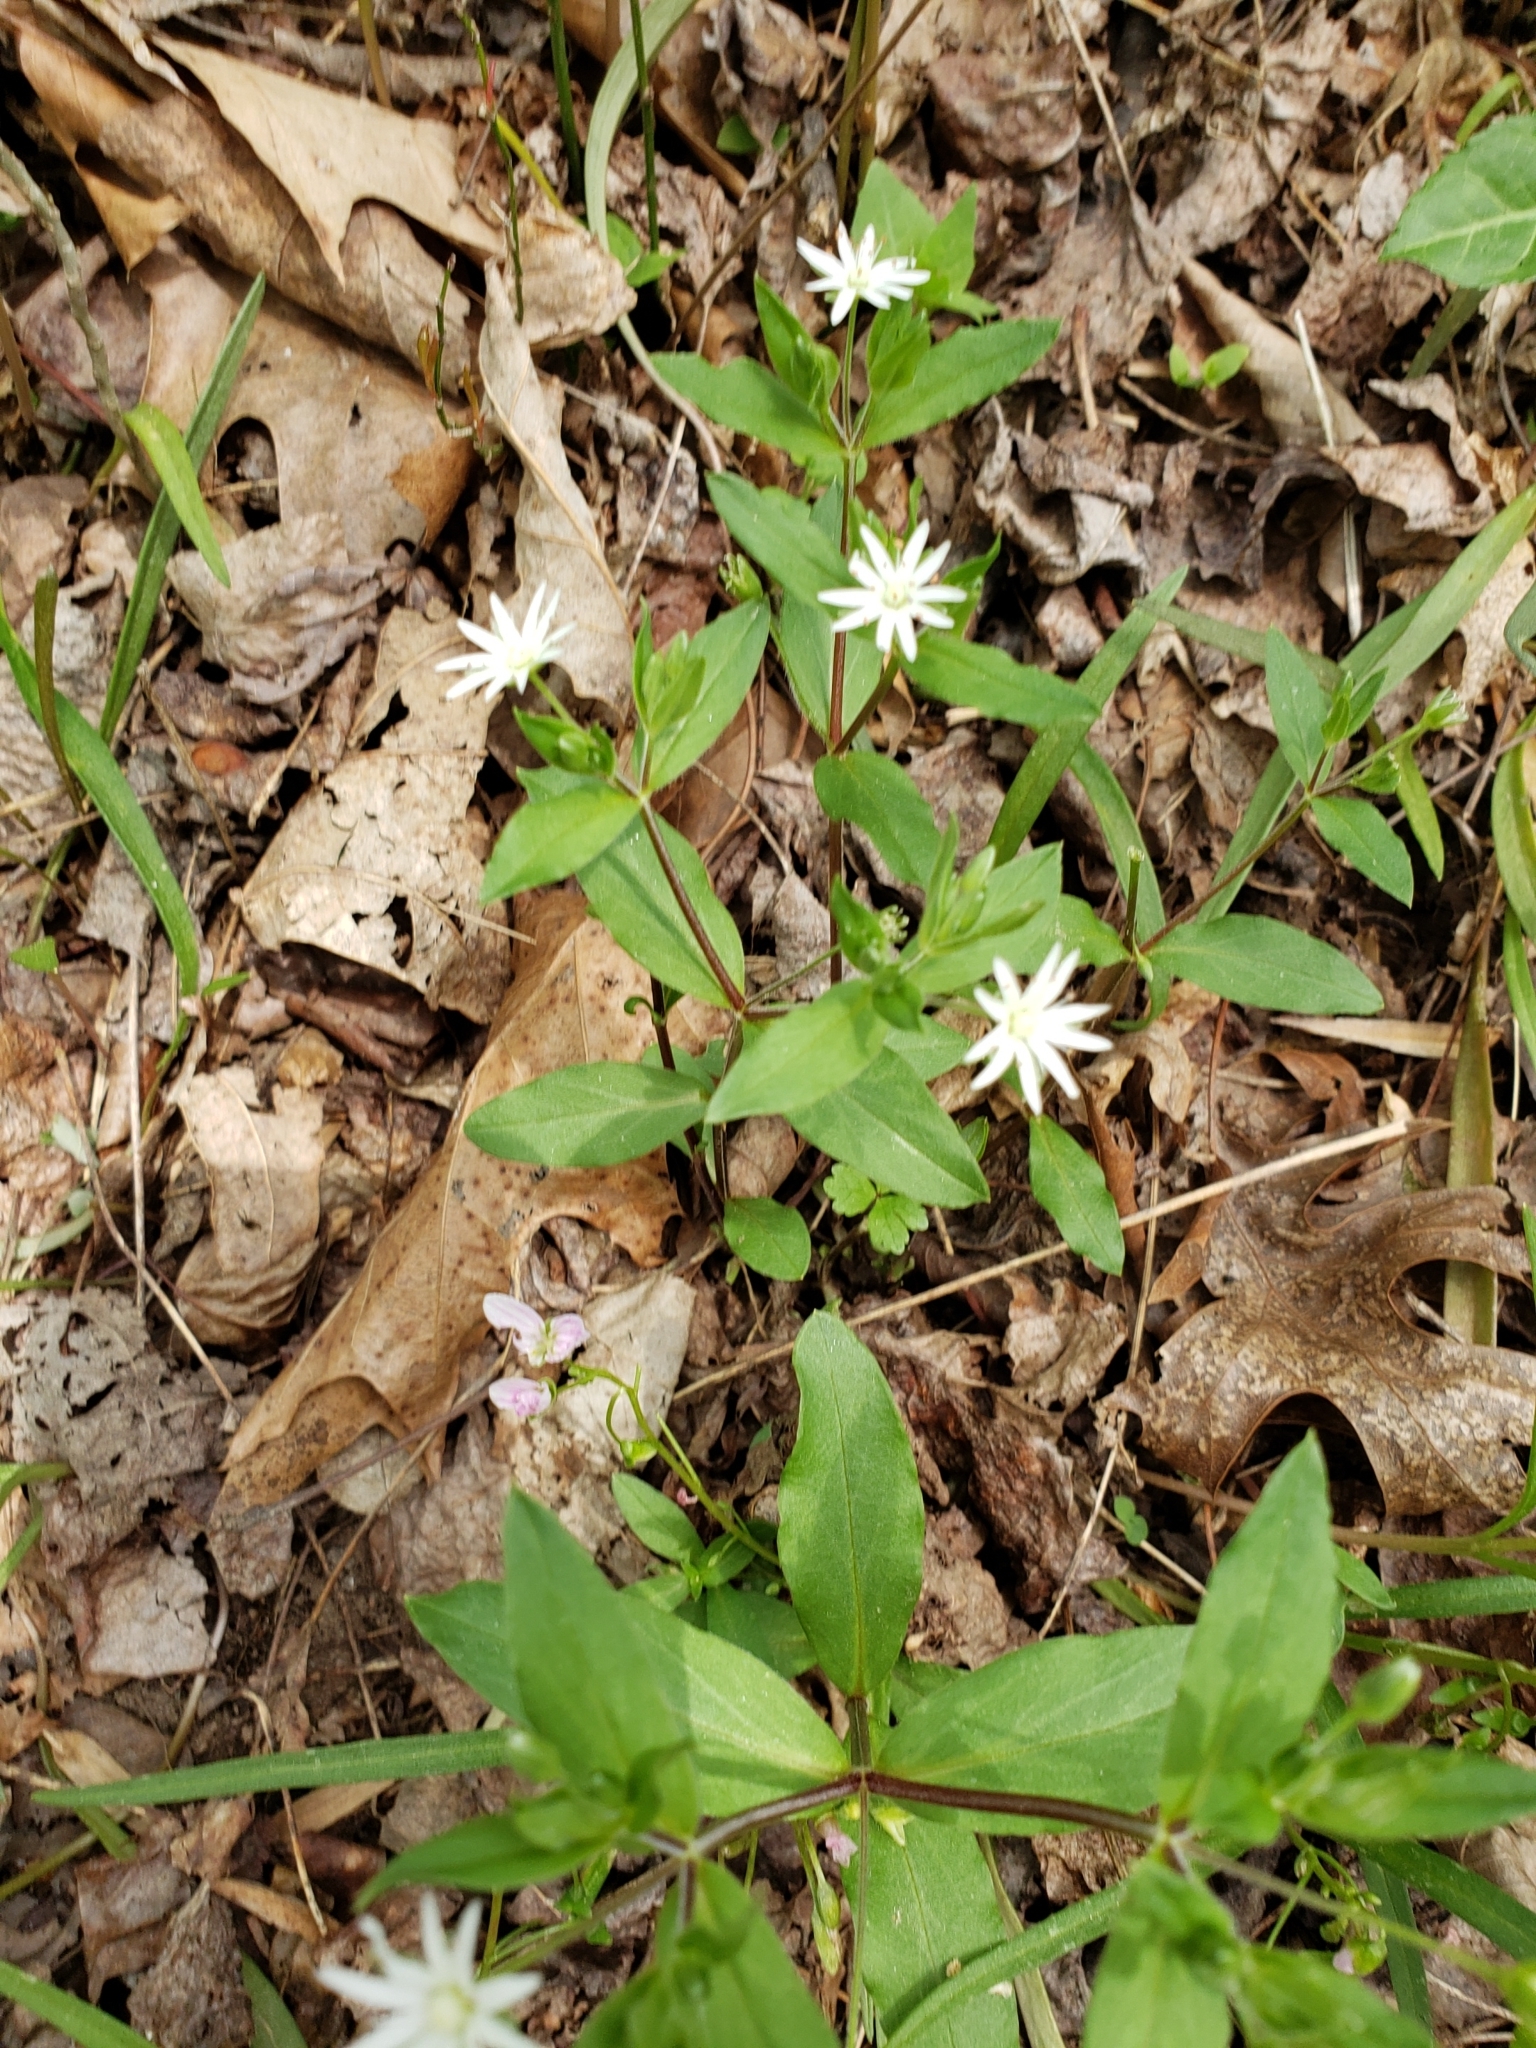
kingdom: Plantae
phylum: Tracheophyta
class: Magnoliopsida
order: Caryophyllales
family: Caryophyllaceae
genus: Stellaria
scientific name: Stellaria pubera
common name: Star chickweed
